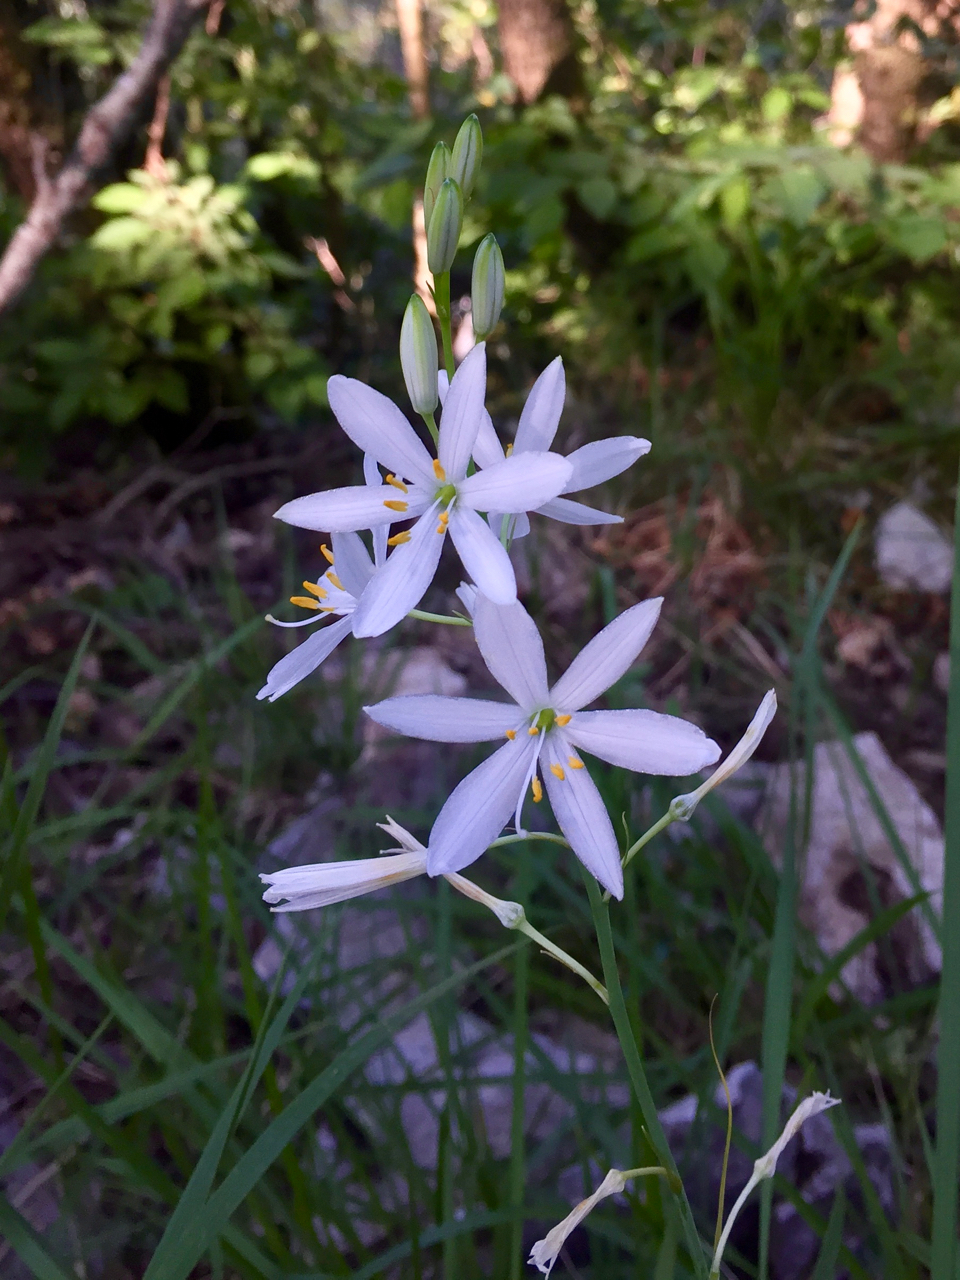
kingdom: Plantae
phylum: Tracheophyta
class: Liliopsida
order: Asparagales
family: Asparagaceae
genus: Anthericum
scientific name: Anthericum liliago
